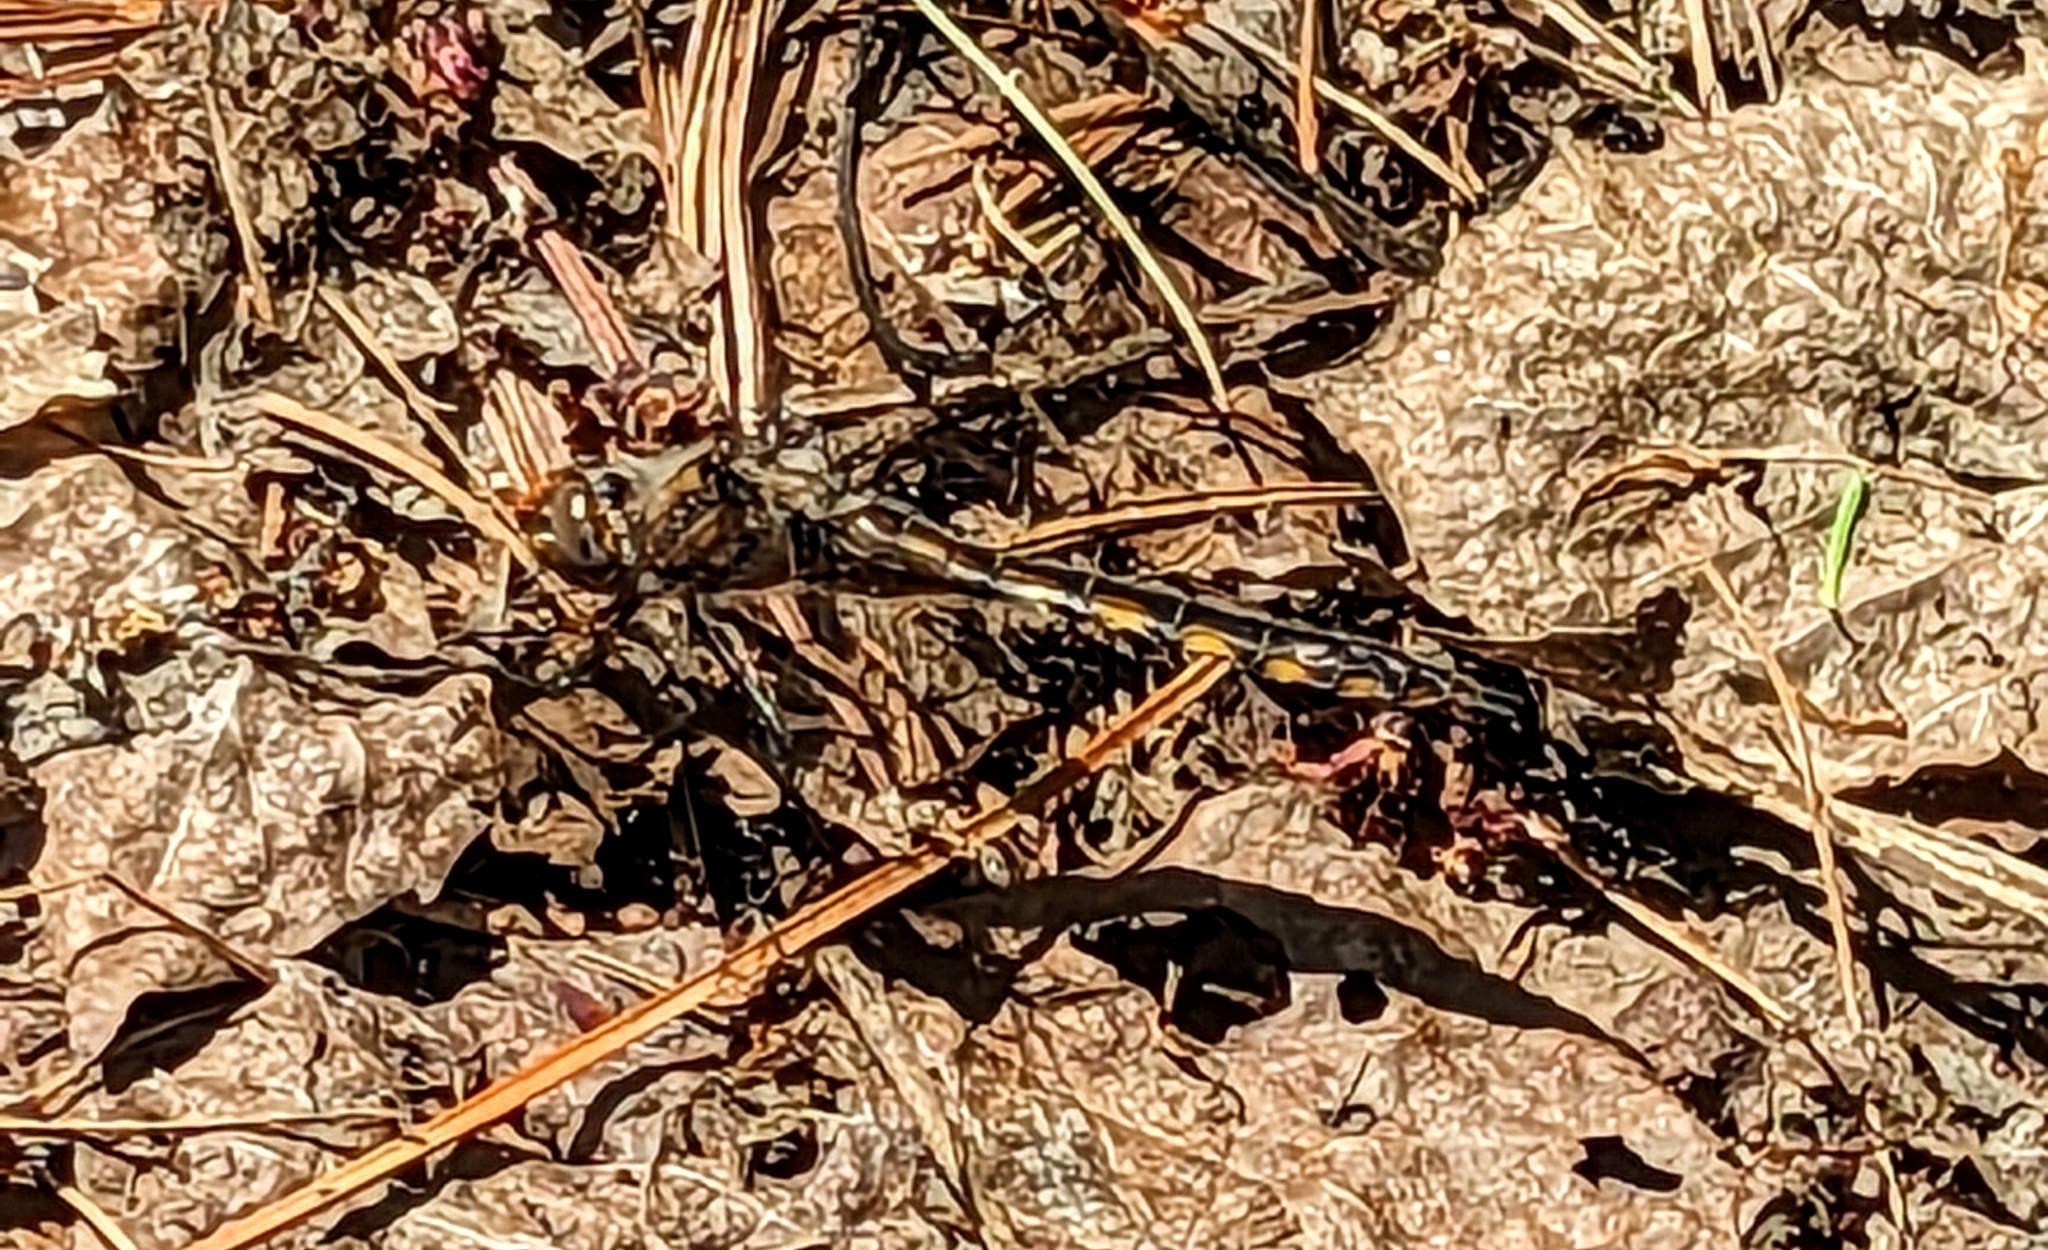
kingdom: Animalia
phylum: Arthropoda
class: Insecta
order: Odonata
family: Corduliidae
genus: Epitheca
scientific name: Epitheca canis
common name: Beaverpond baskettail
